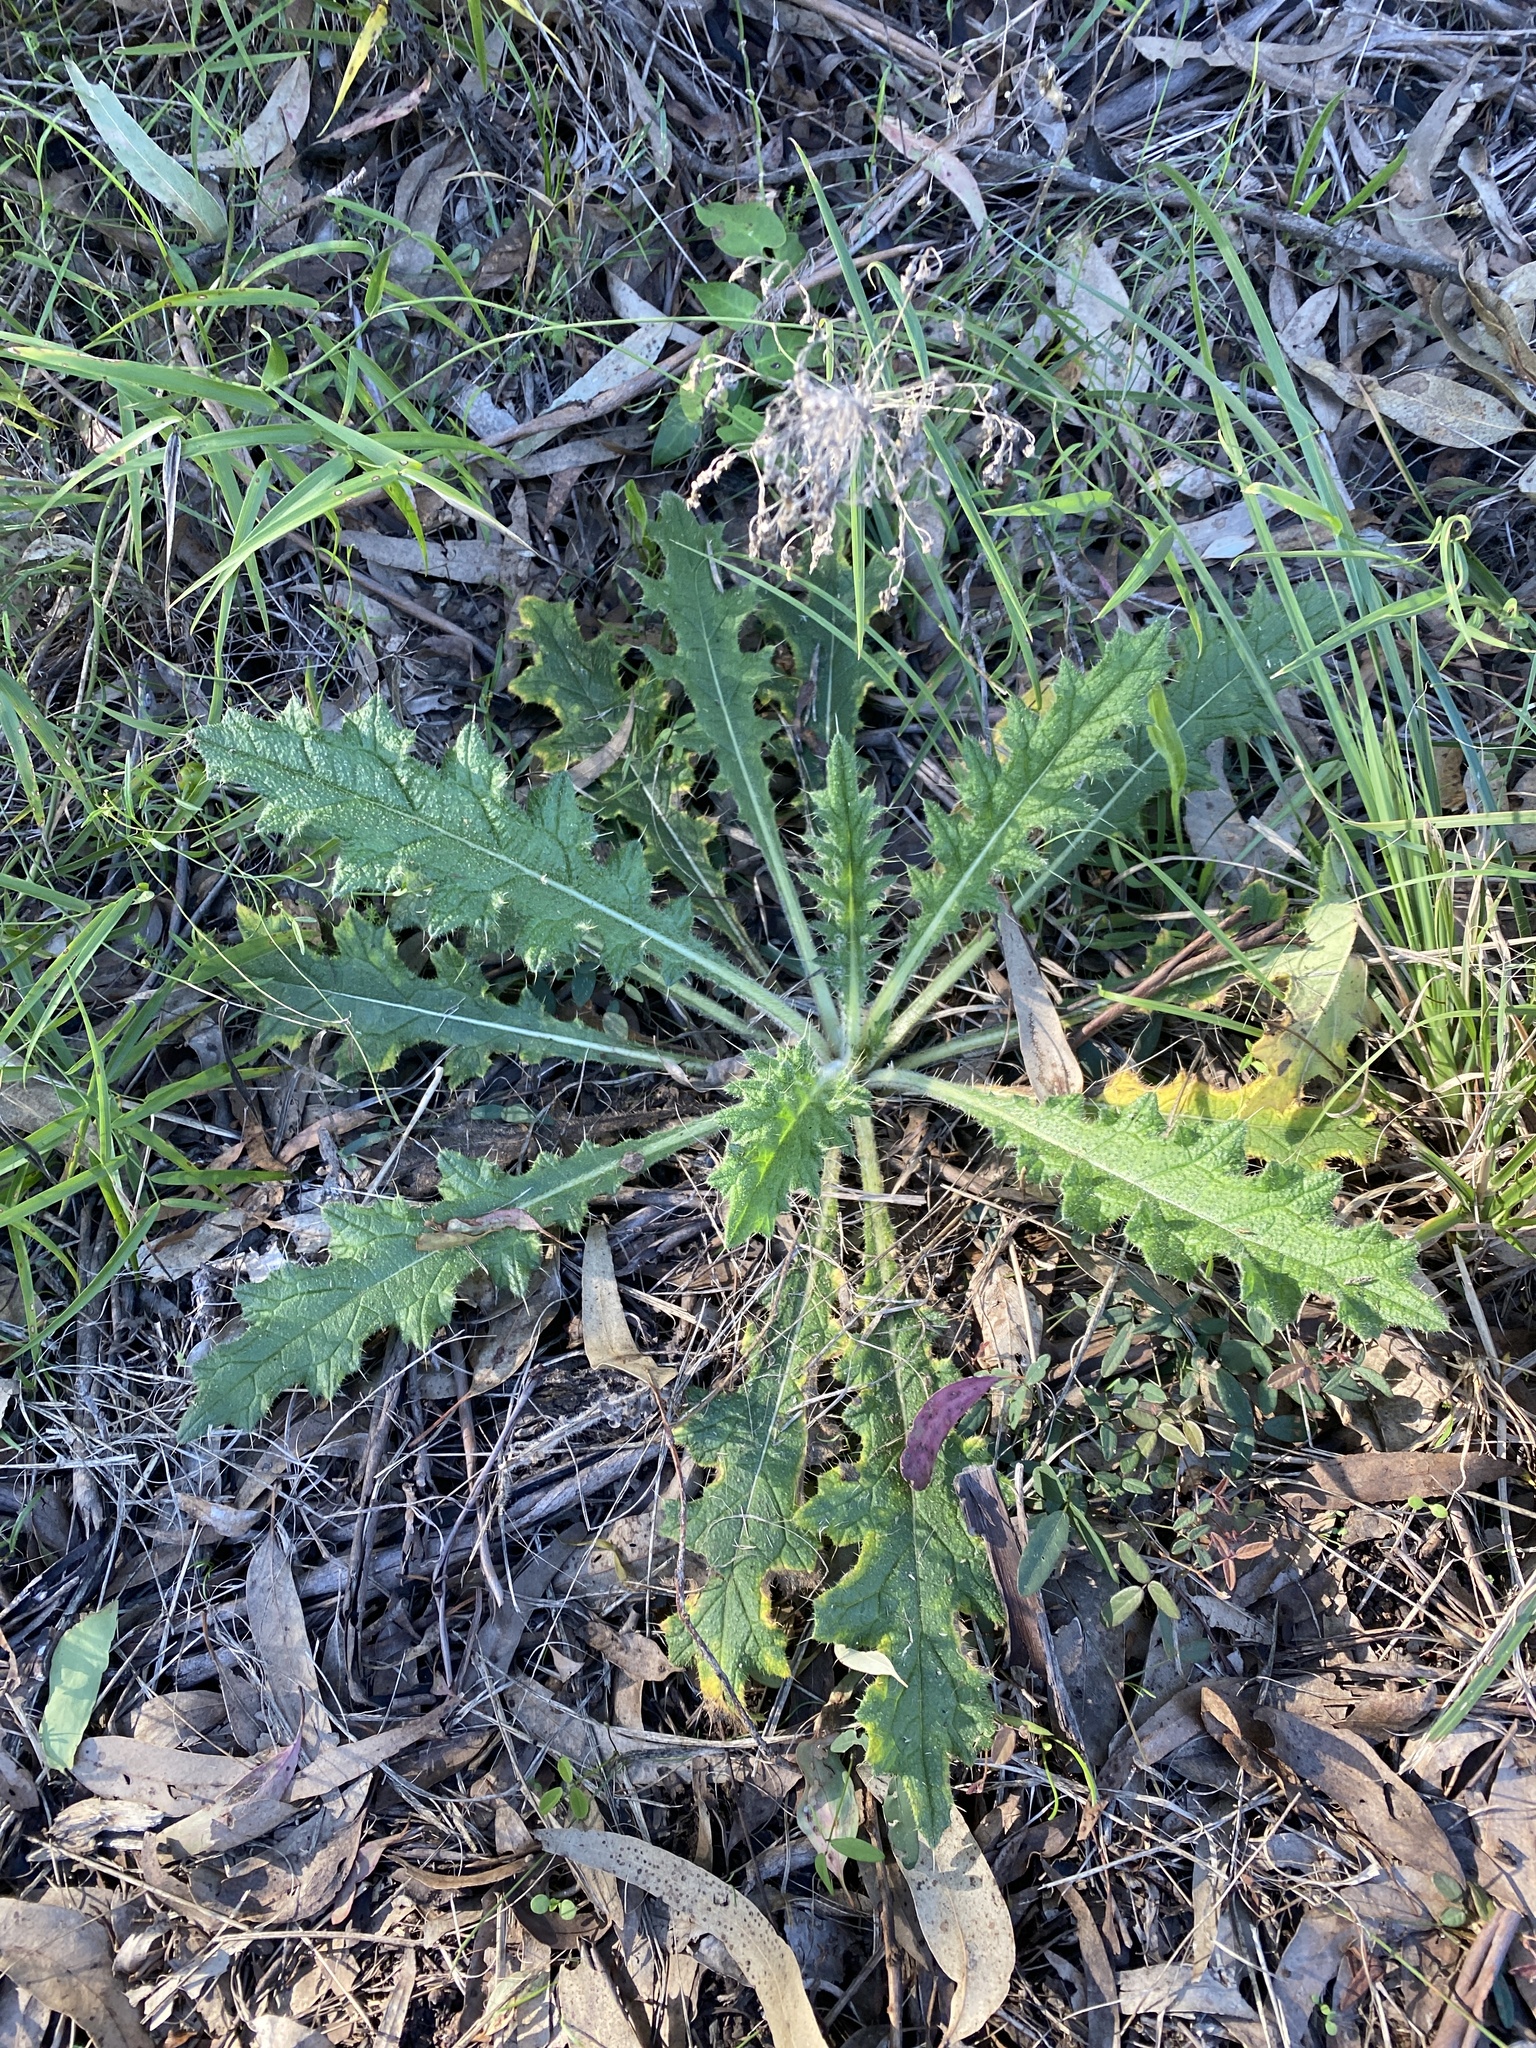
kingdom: Plantae
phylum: Tracheophyta
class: Magnoliopsida
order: Asterales
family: Asteraceae
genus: Cirsium
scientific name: Cirsium vulgare
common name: Bull thistle
